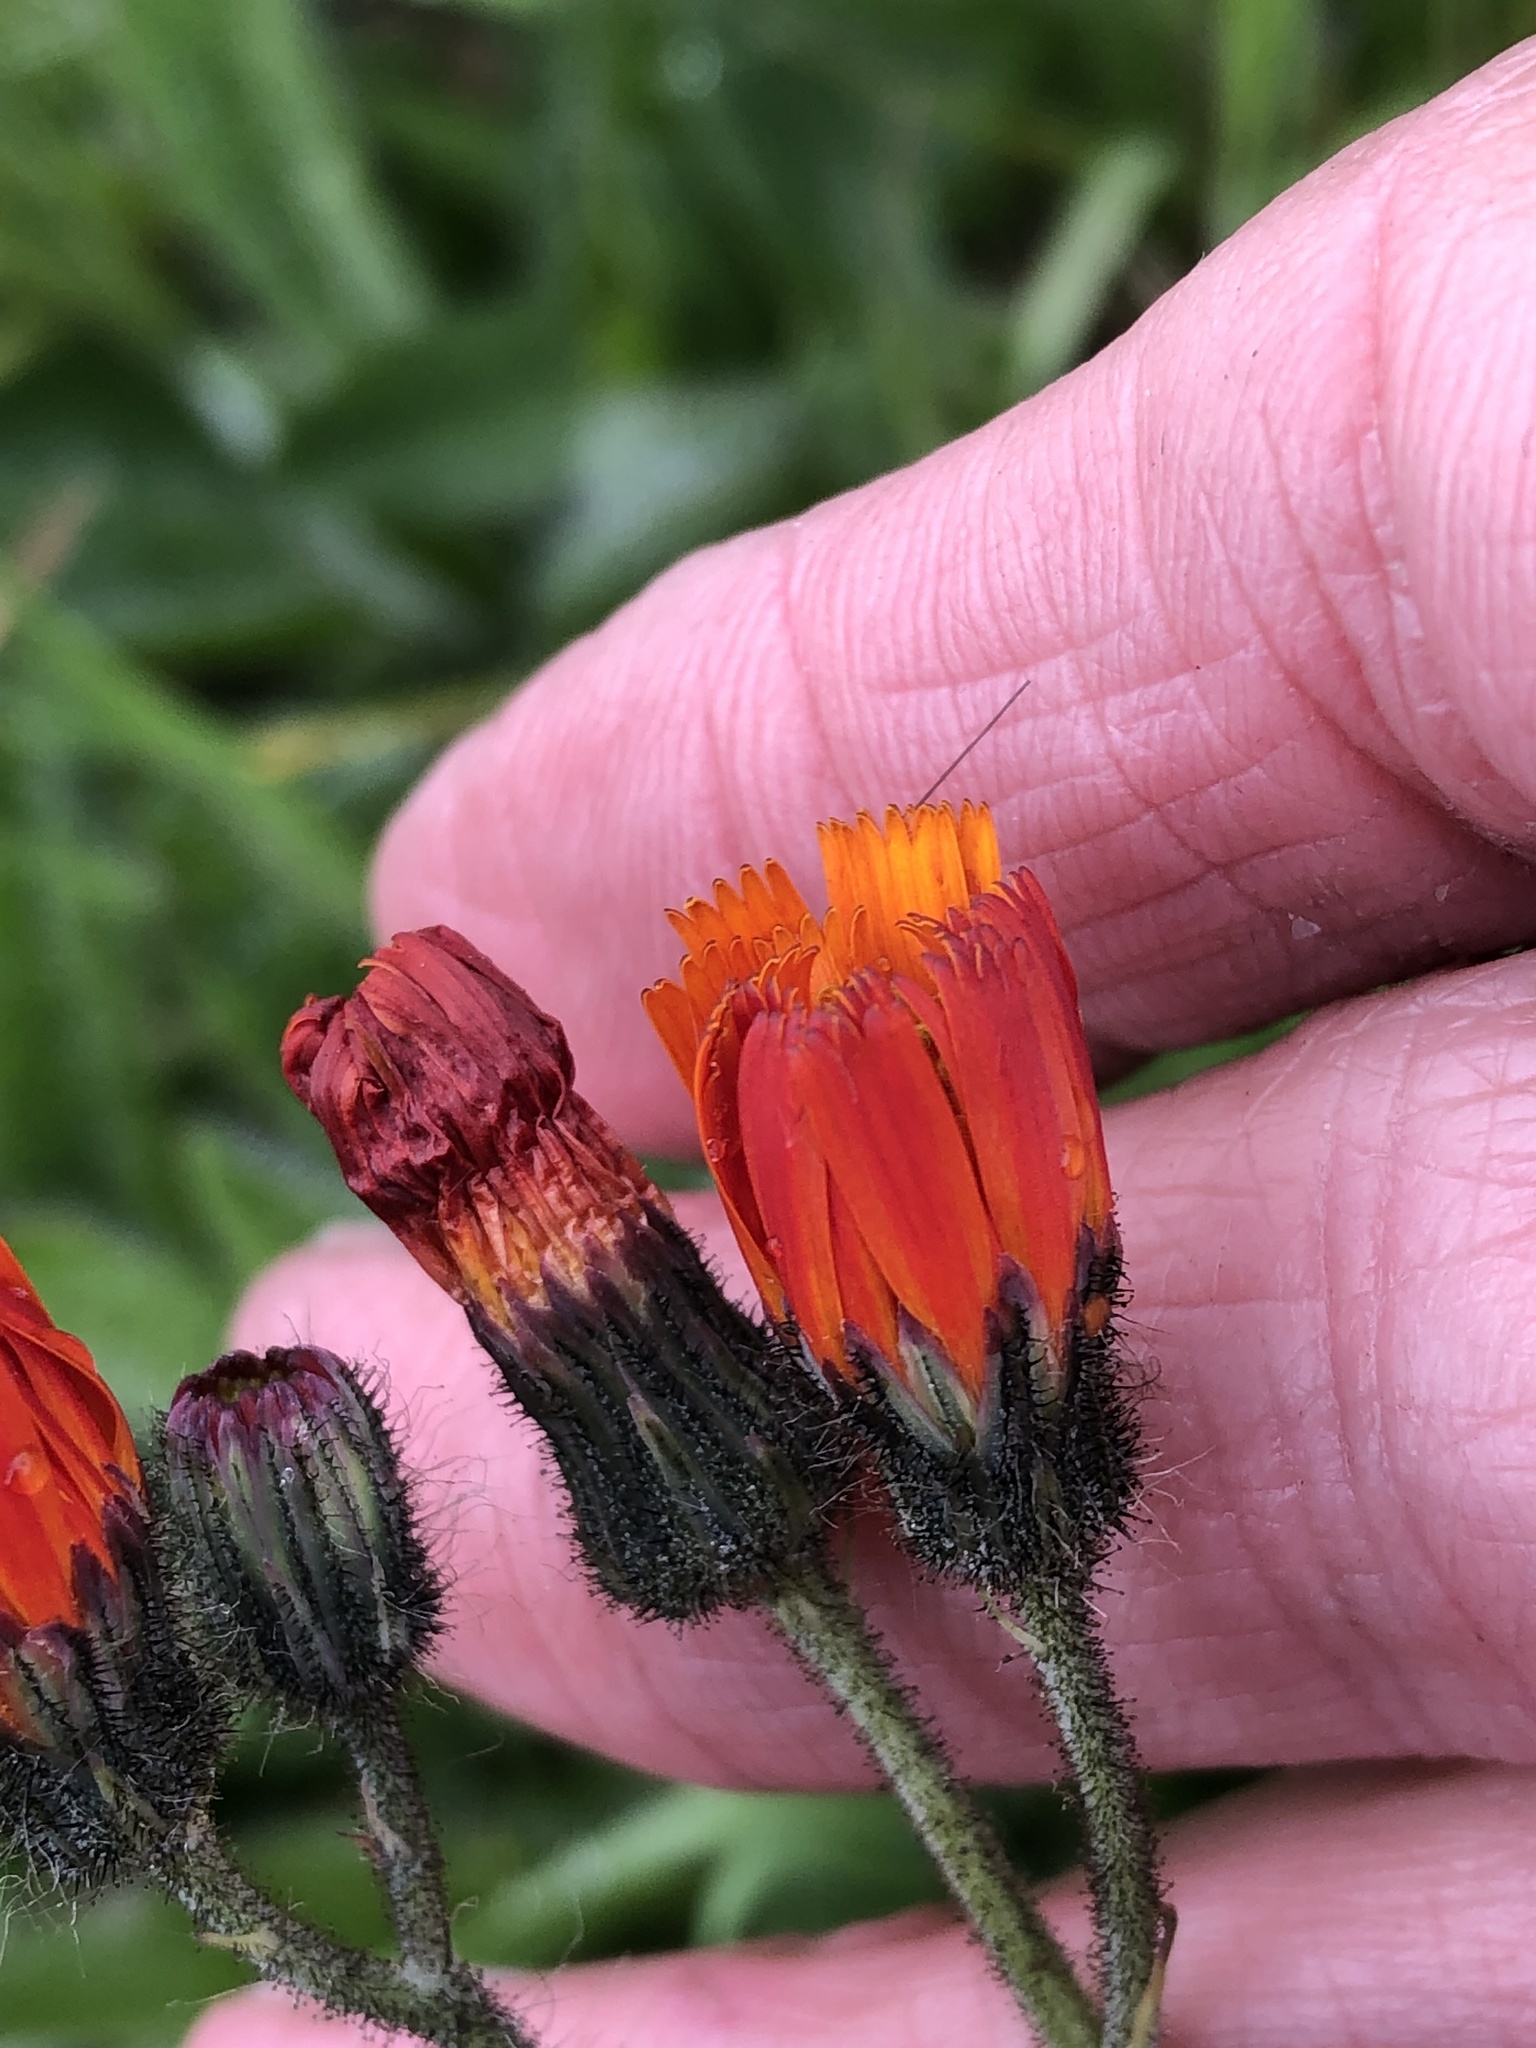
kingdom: Plantae
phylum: Tracheophyta
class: Magnoliopsida
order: Asterales
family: Asteraceae
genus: Pilosella
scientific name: Pilosella aurantiaca
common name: Fox-and-cubs
